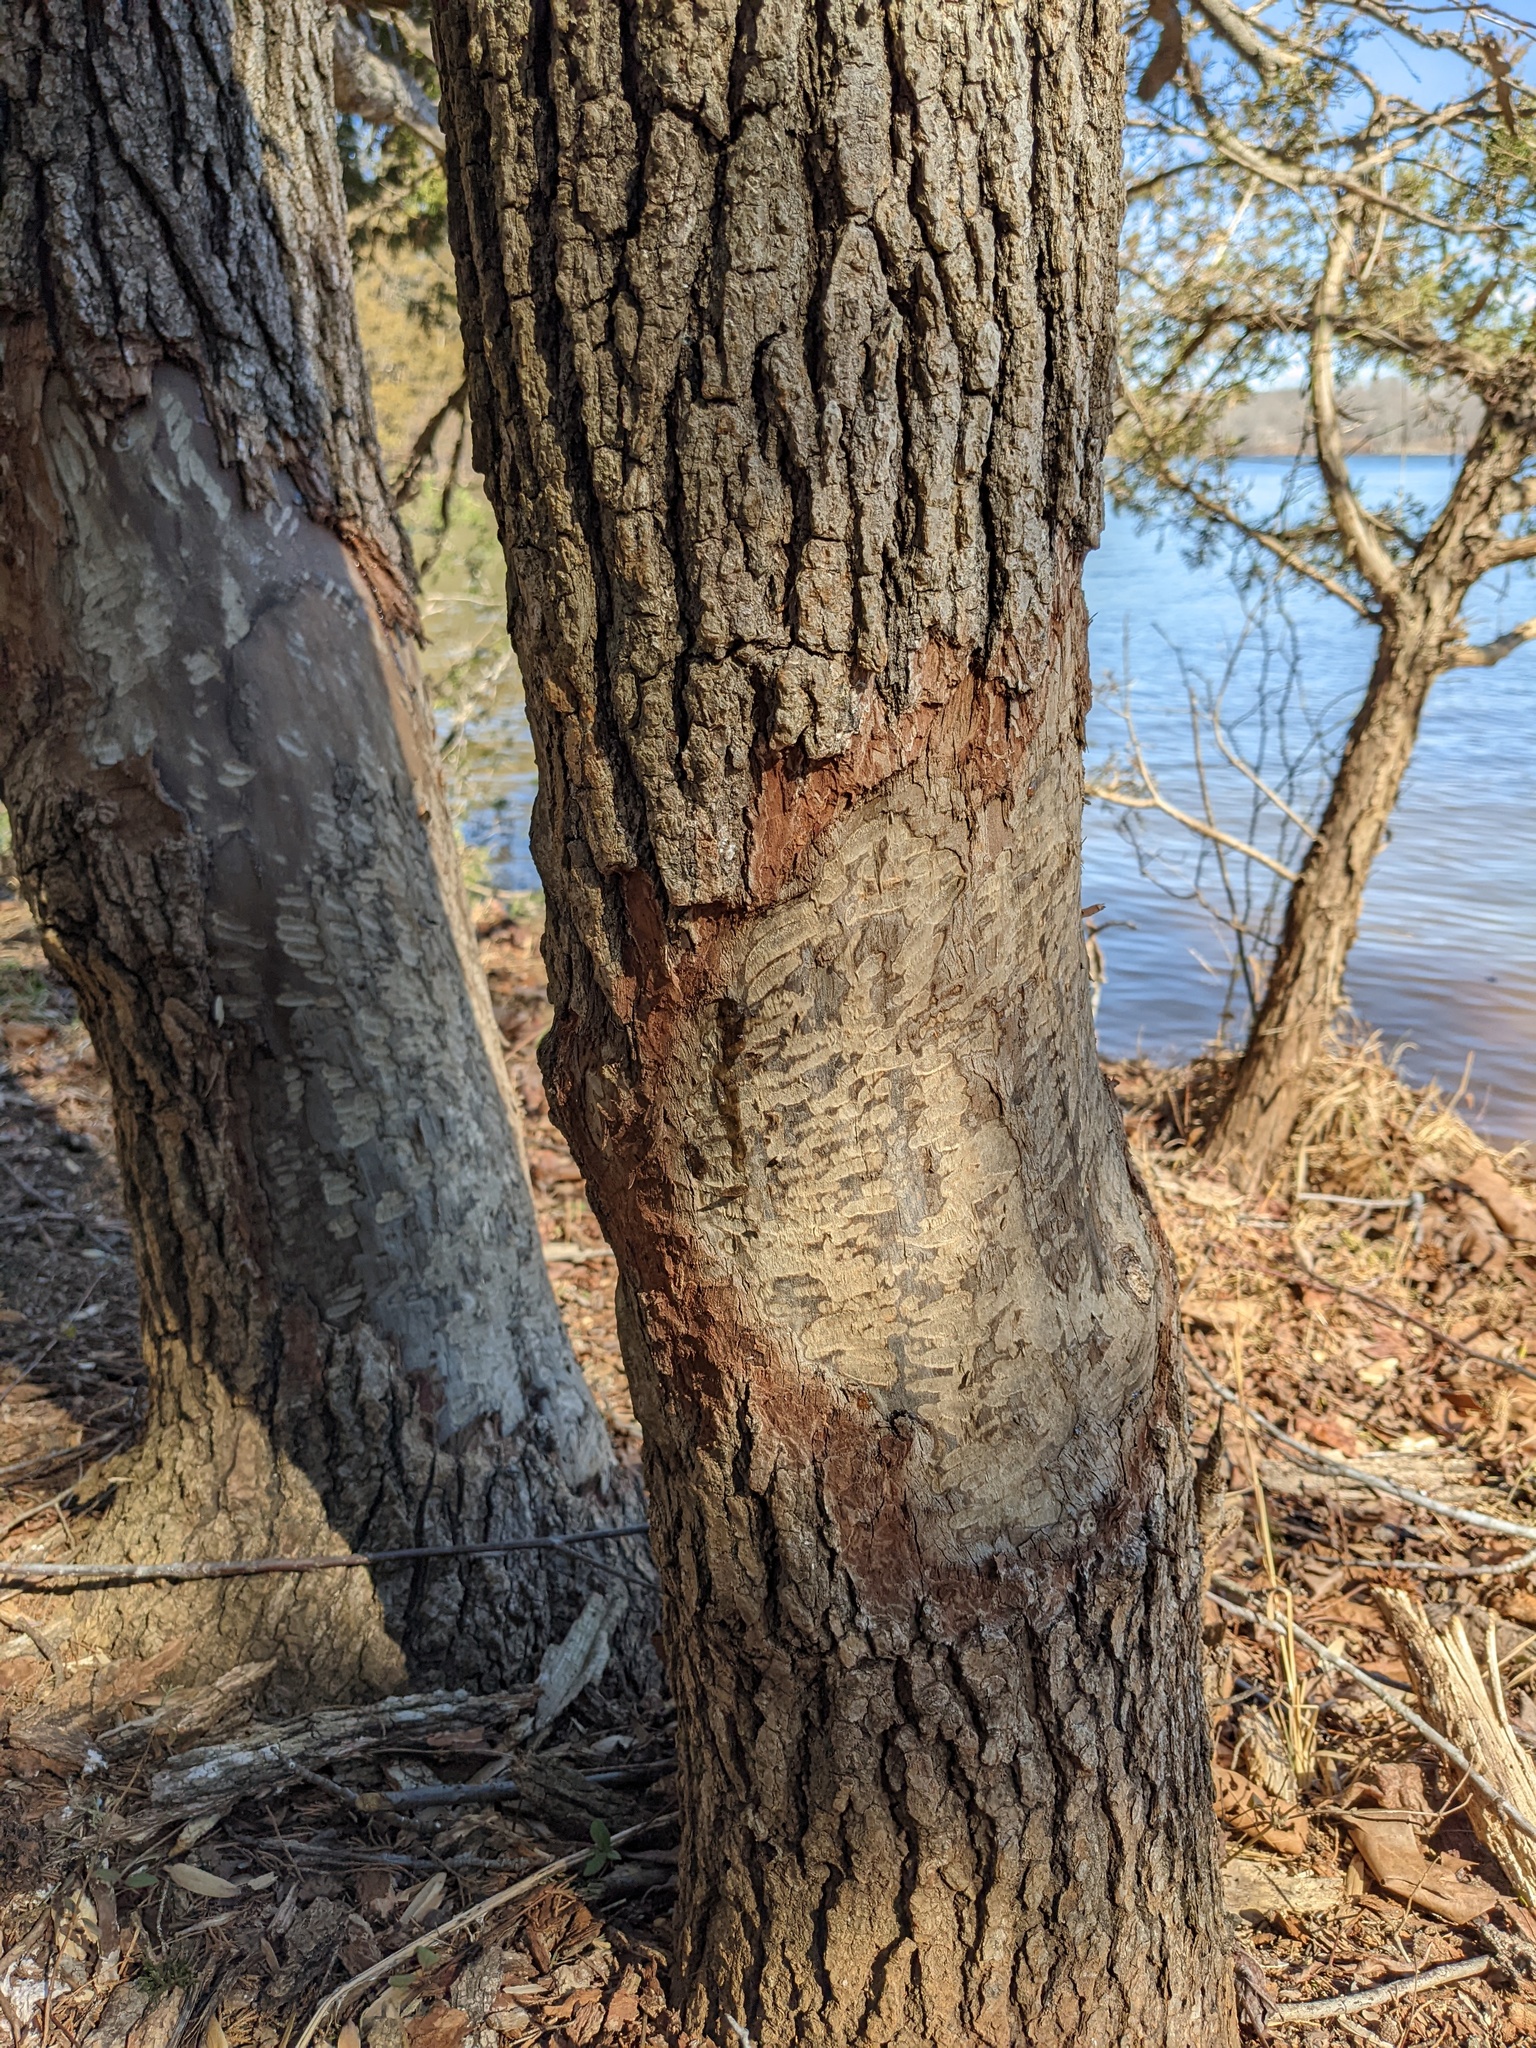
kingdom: Animalia
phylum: Chordata
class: Mammalia
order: Rodentia
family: Castoridae
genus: Castor
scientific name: Castor canadensis
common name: American beaver
